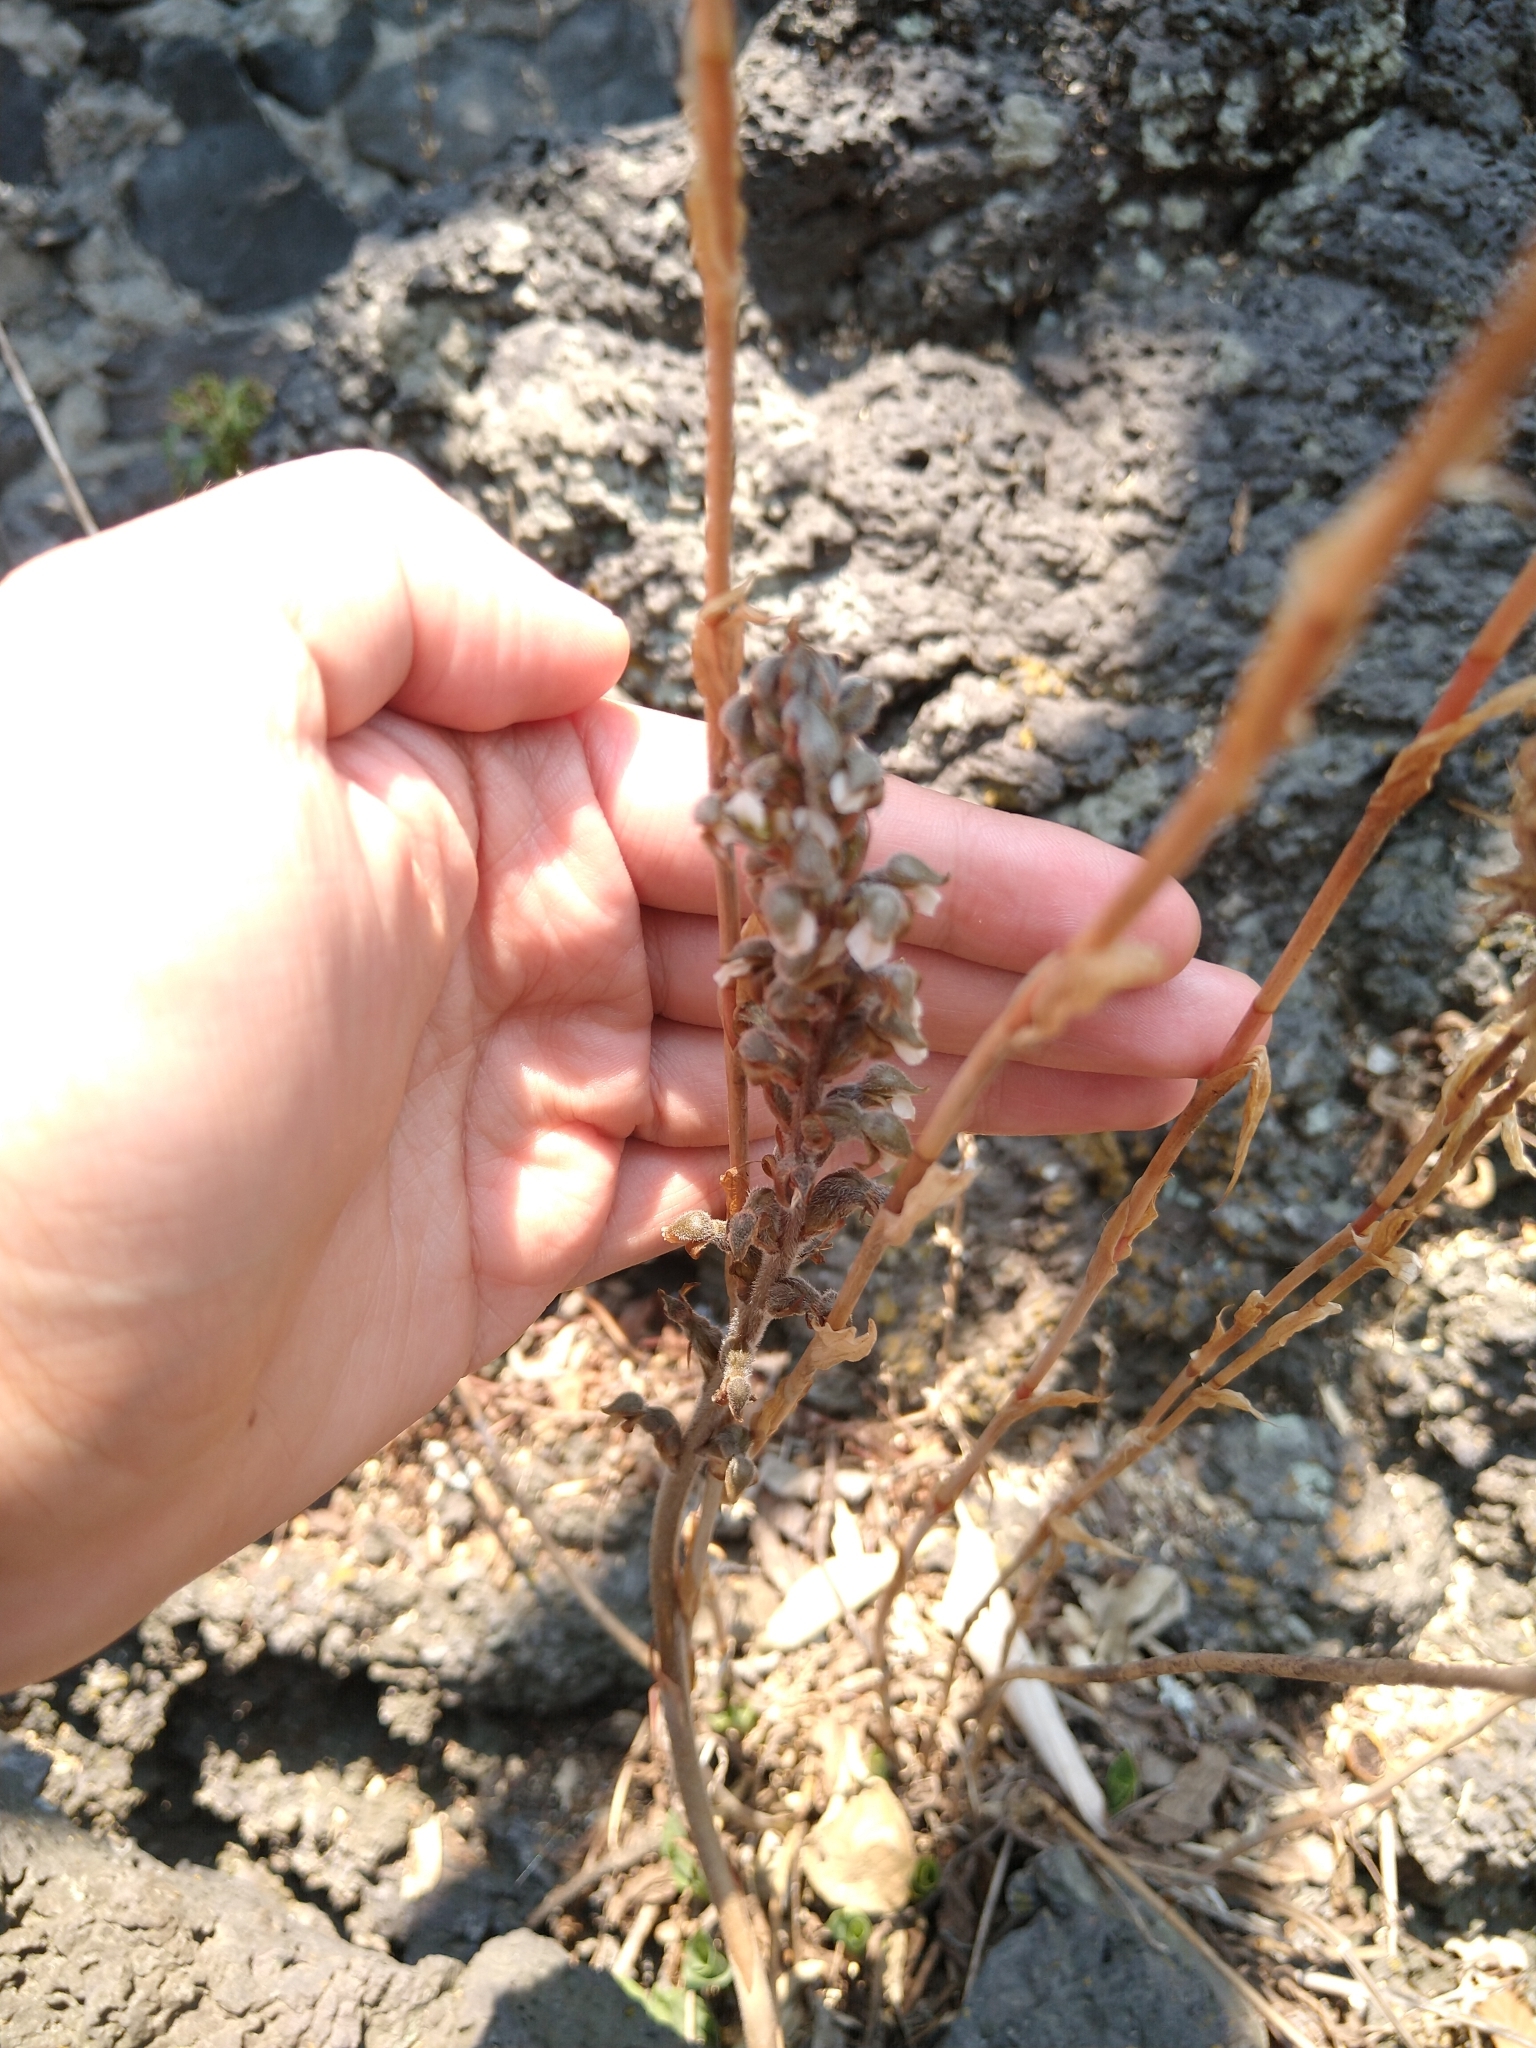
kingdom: Plantae
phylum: Tracheophyta
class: Liliopsida
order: Asparagales
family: Orchidaceae
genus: Sarcoglottis
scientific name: Sarcoglottis schaffneri
